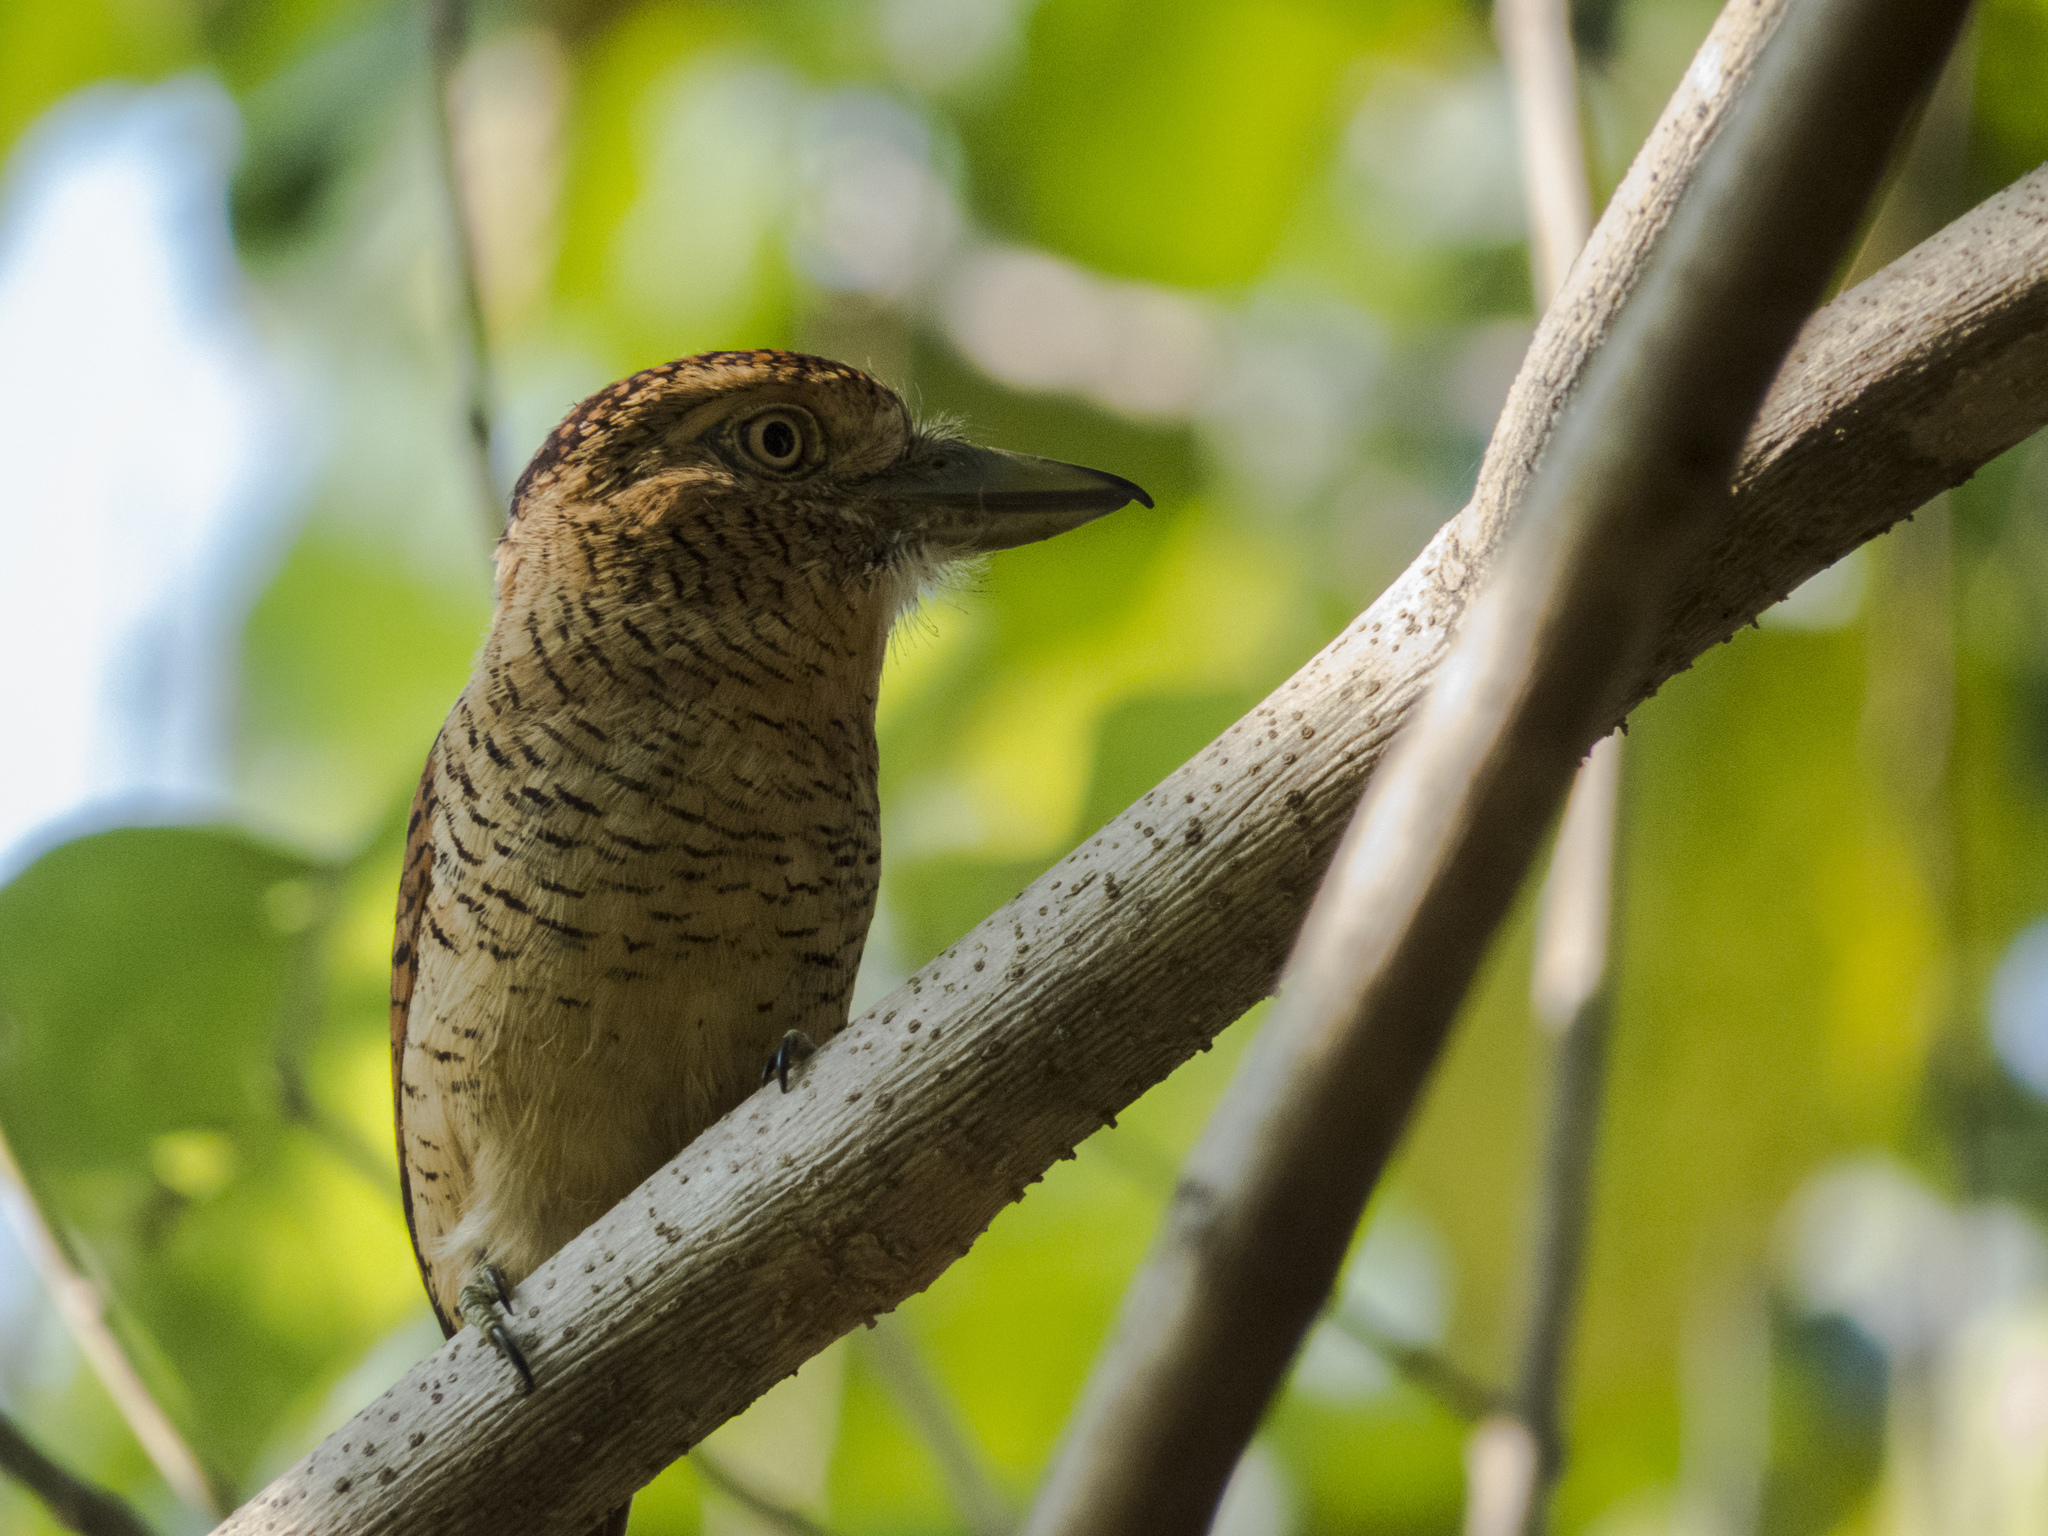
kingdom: Animalia
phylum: Chordata
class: Aves
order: Piciformes
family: Bucconidae
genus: Nystalus
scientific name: Nystalus radiatus
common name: Barred puffbird
